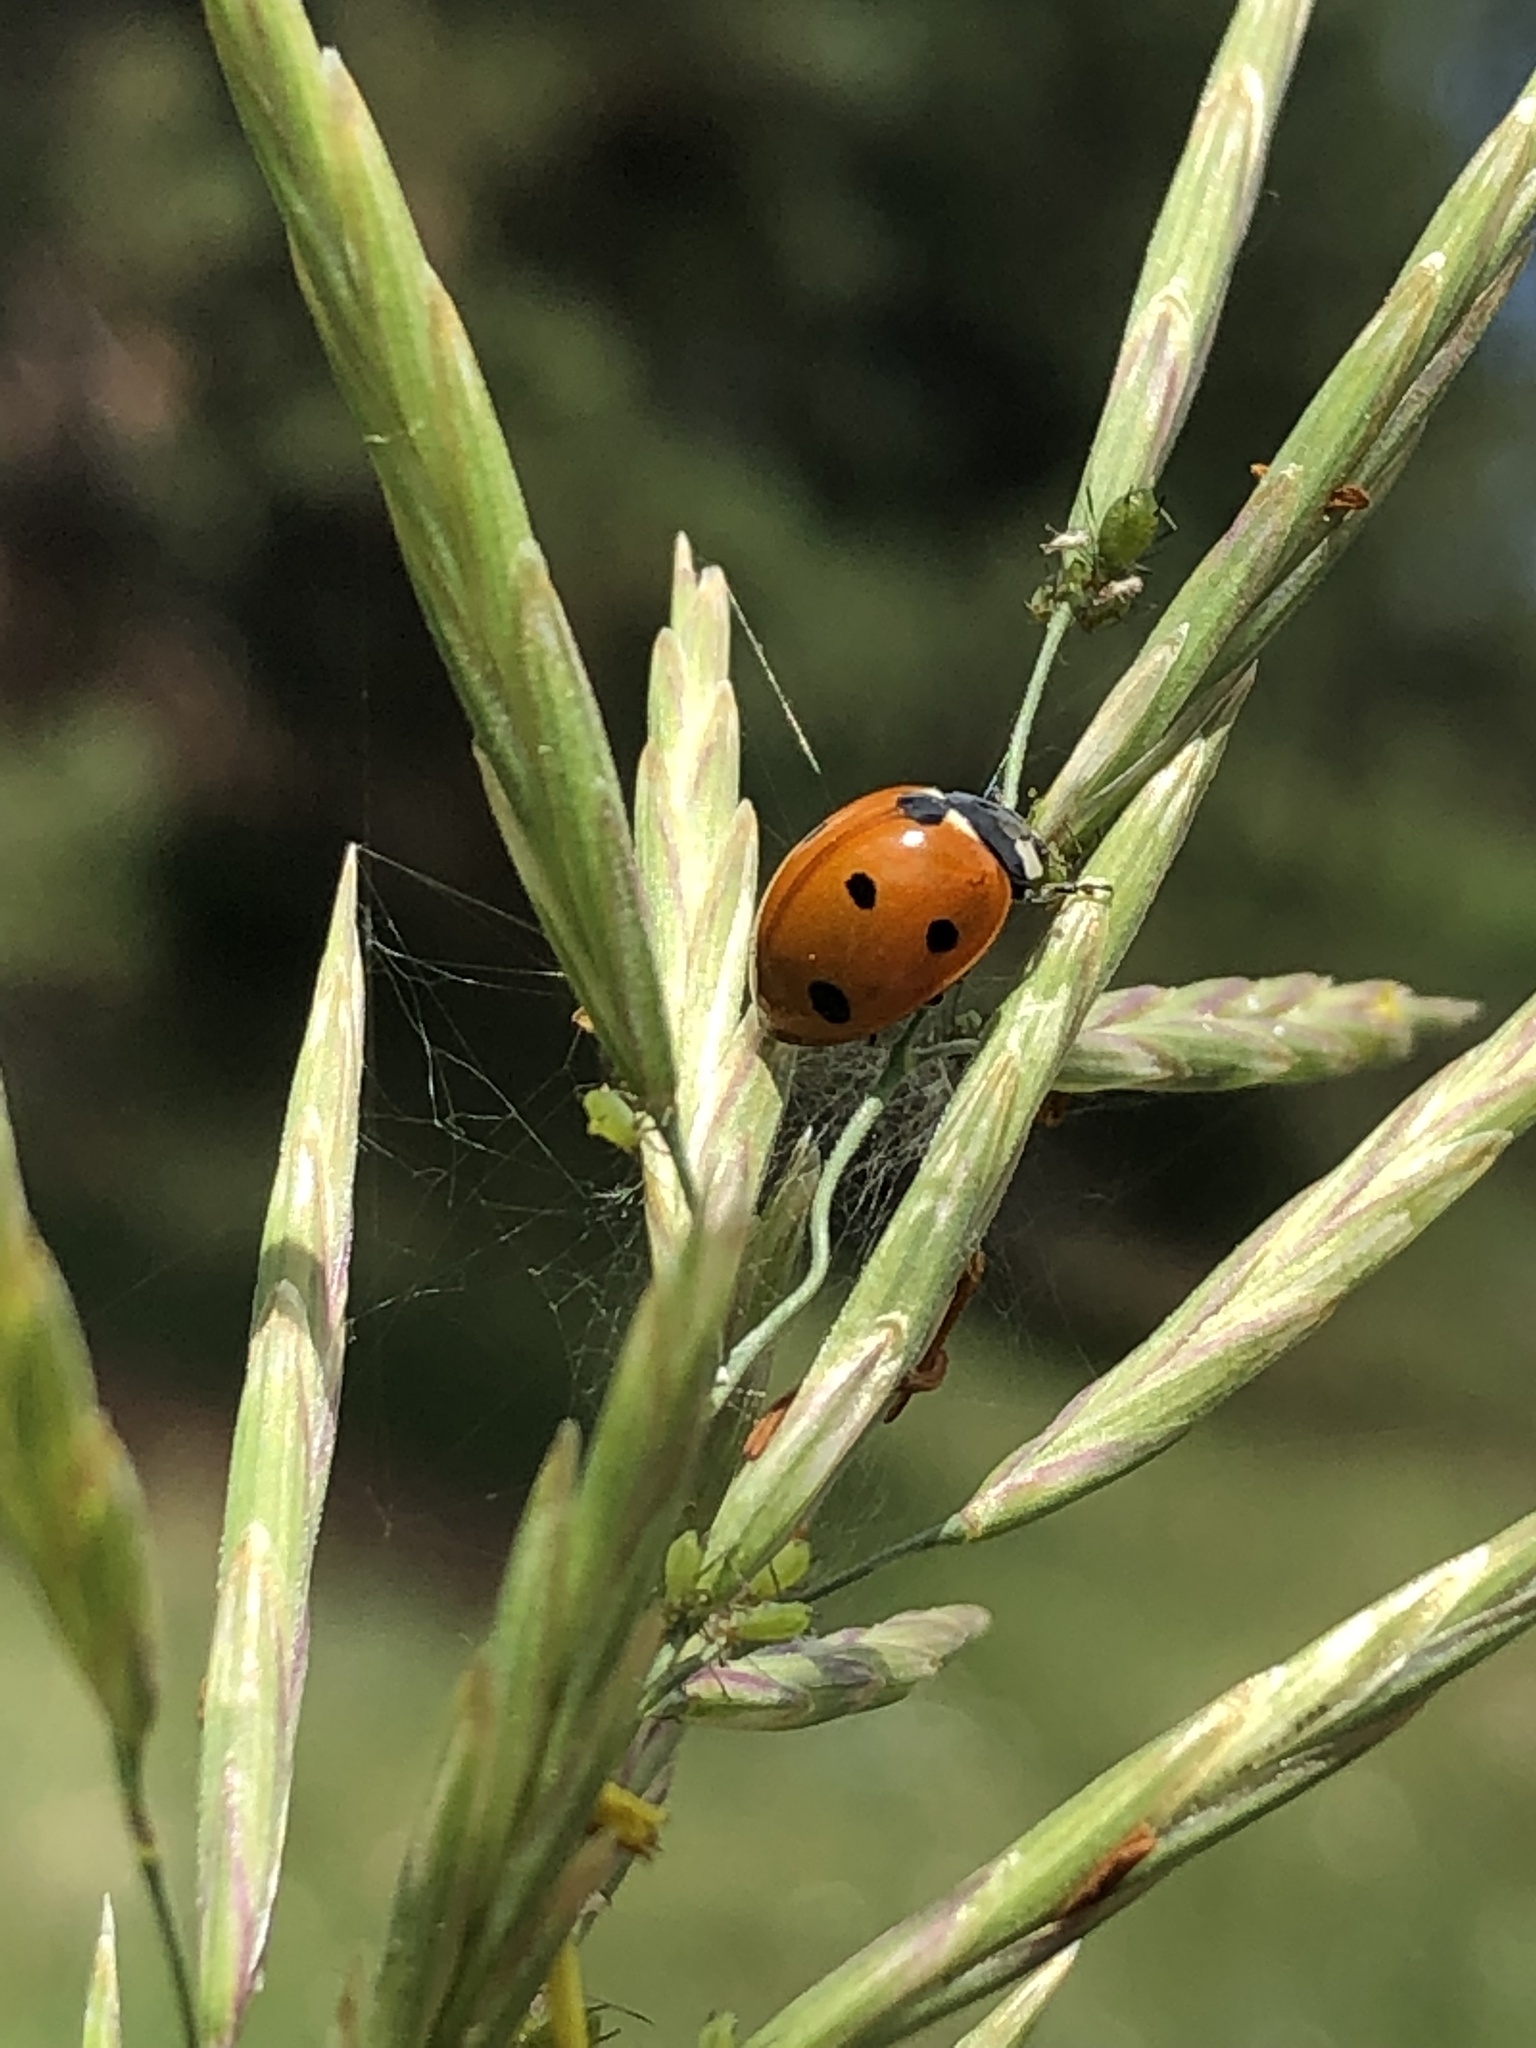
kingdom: Animalia
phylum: Arthropoda
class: Insecta
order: Coleoptera
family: Coccinellidae
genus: Coccinella
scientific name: Coccinella septempunctata
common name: Sevenspotted lady beetle
